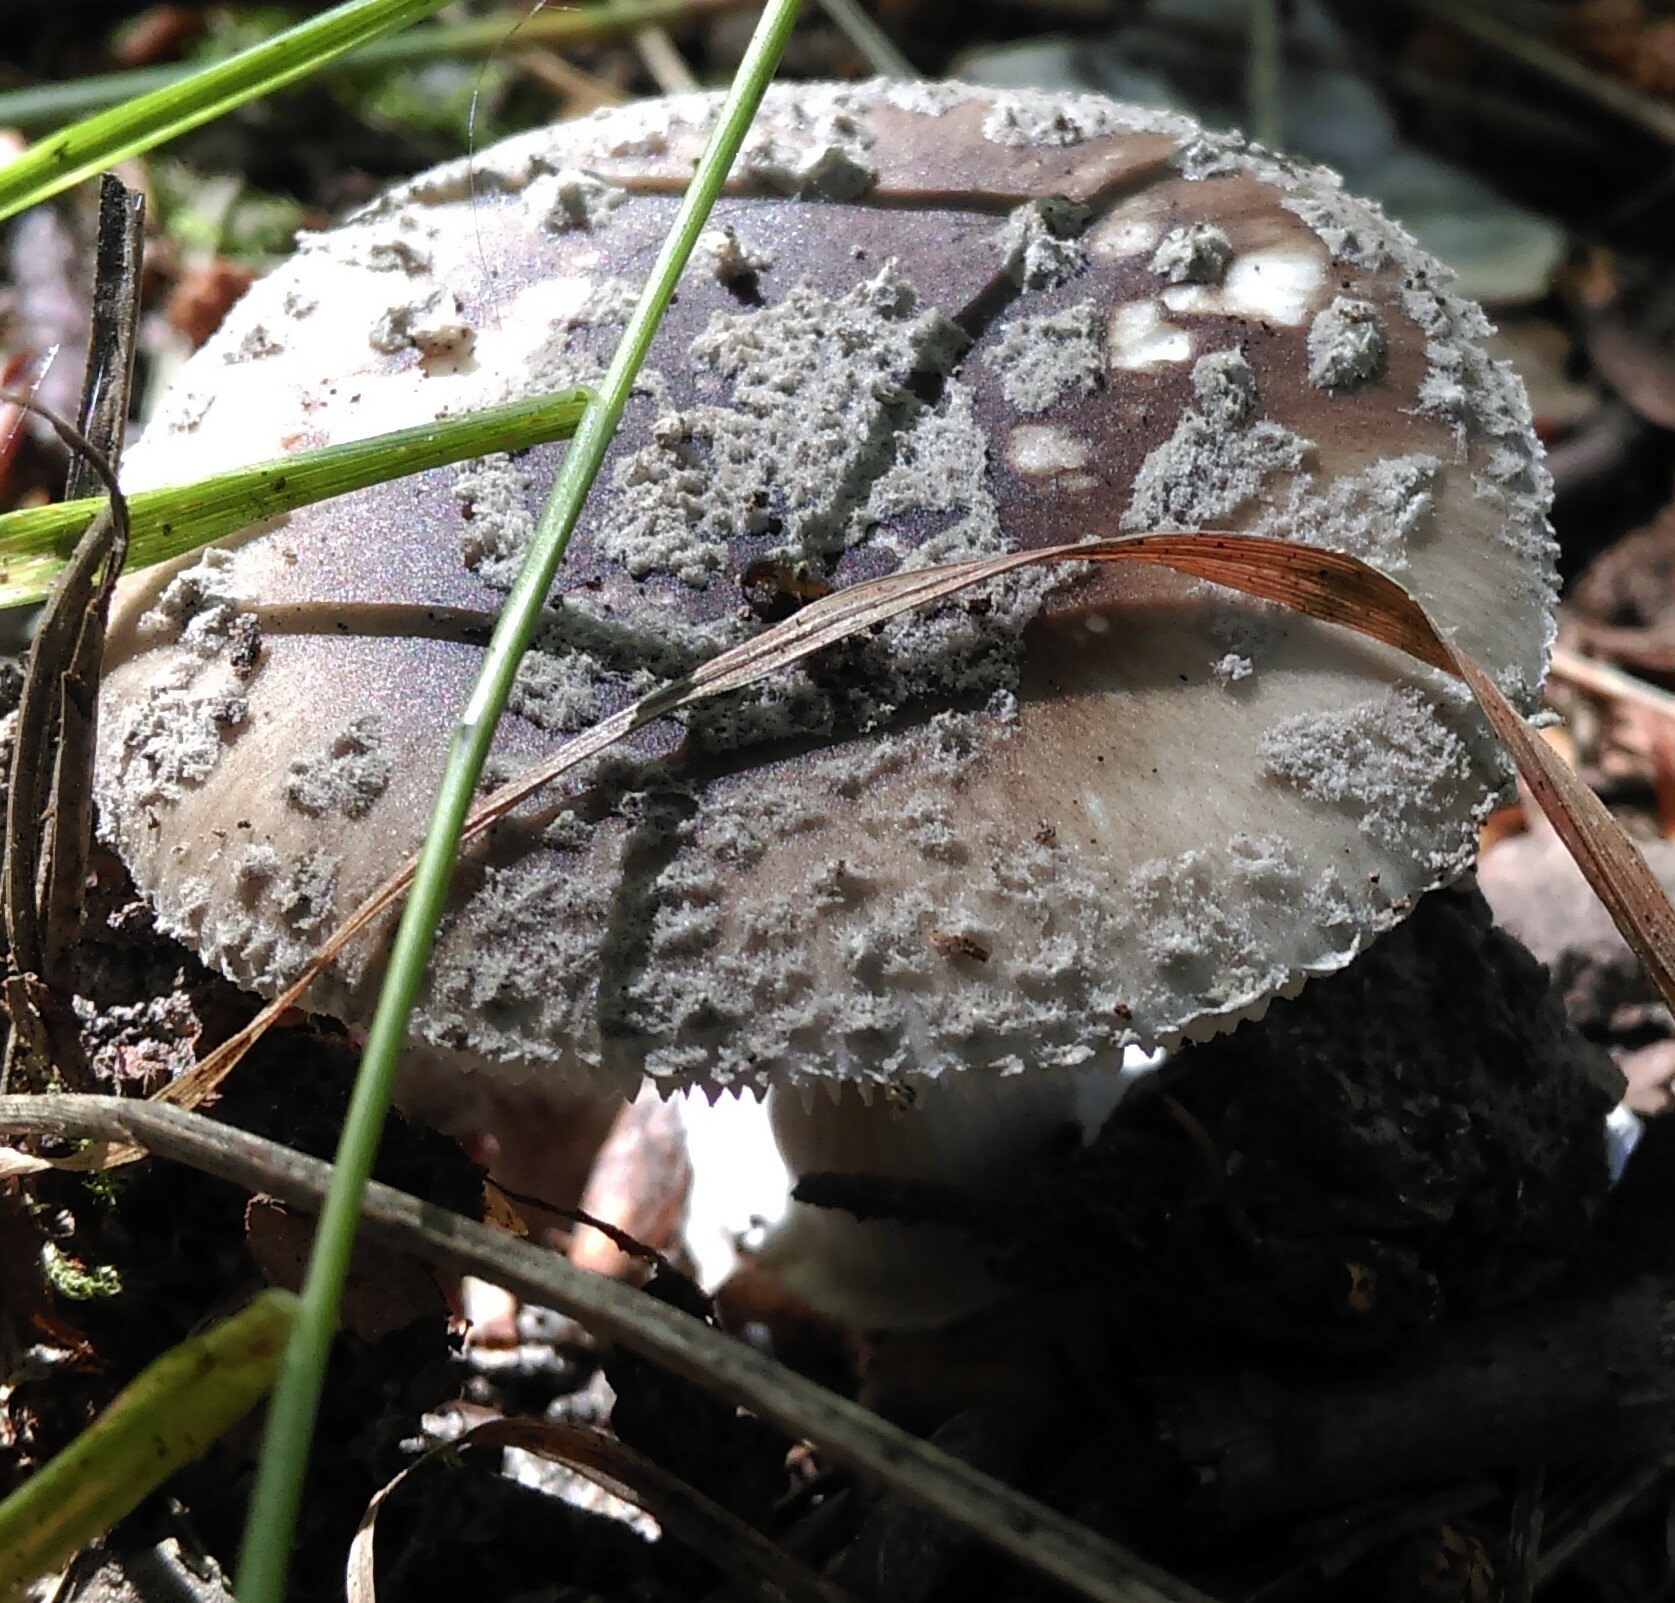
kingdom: Fungi
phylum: Basidiomycota
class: Agaricomycetes
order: Agaricales
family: Amanitaceae
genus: Amanita
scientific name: Amanita rubescens
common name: Blusher
